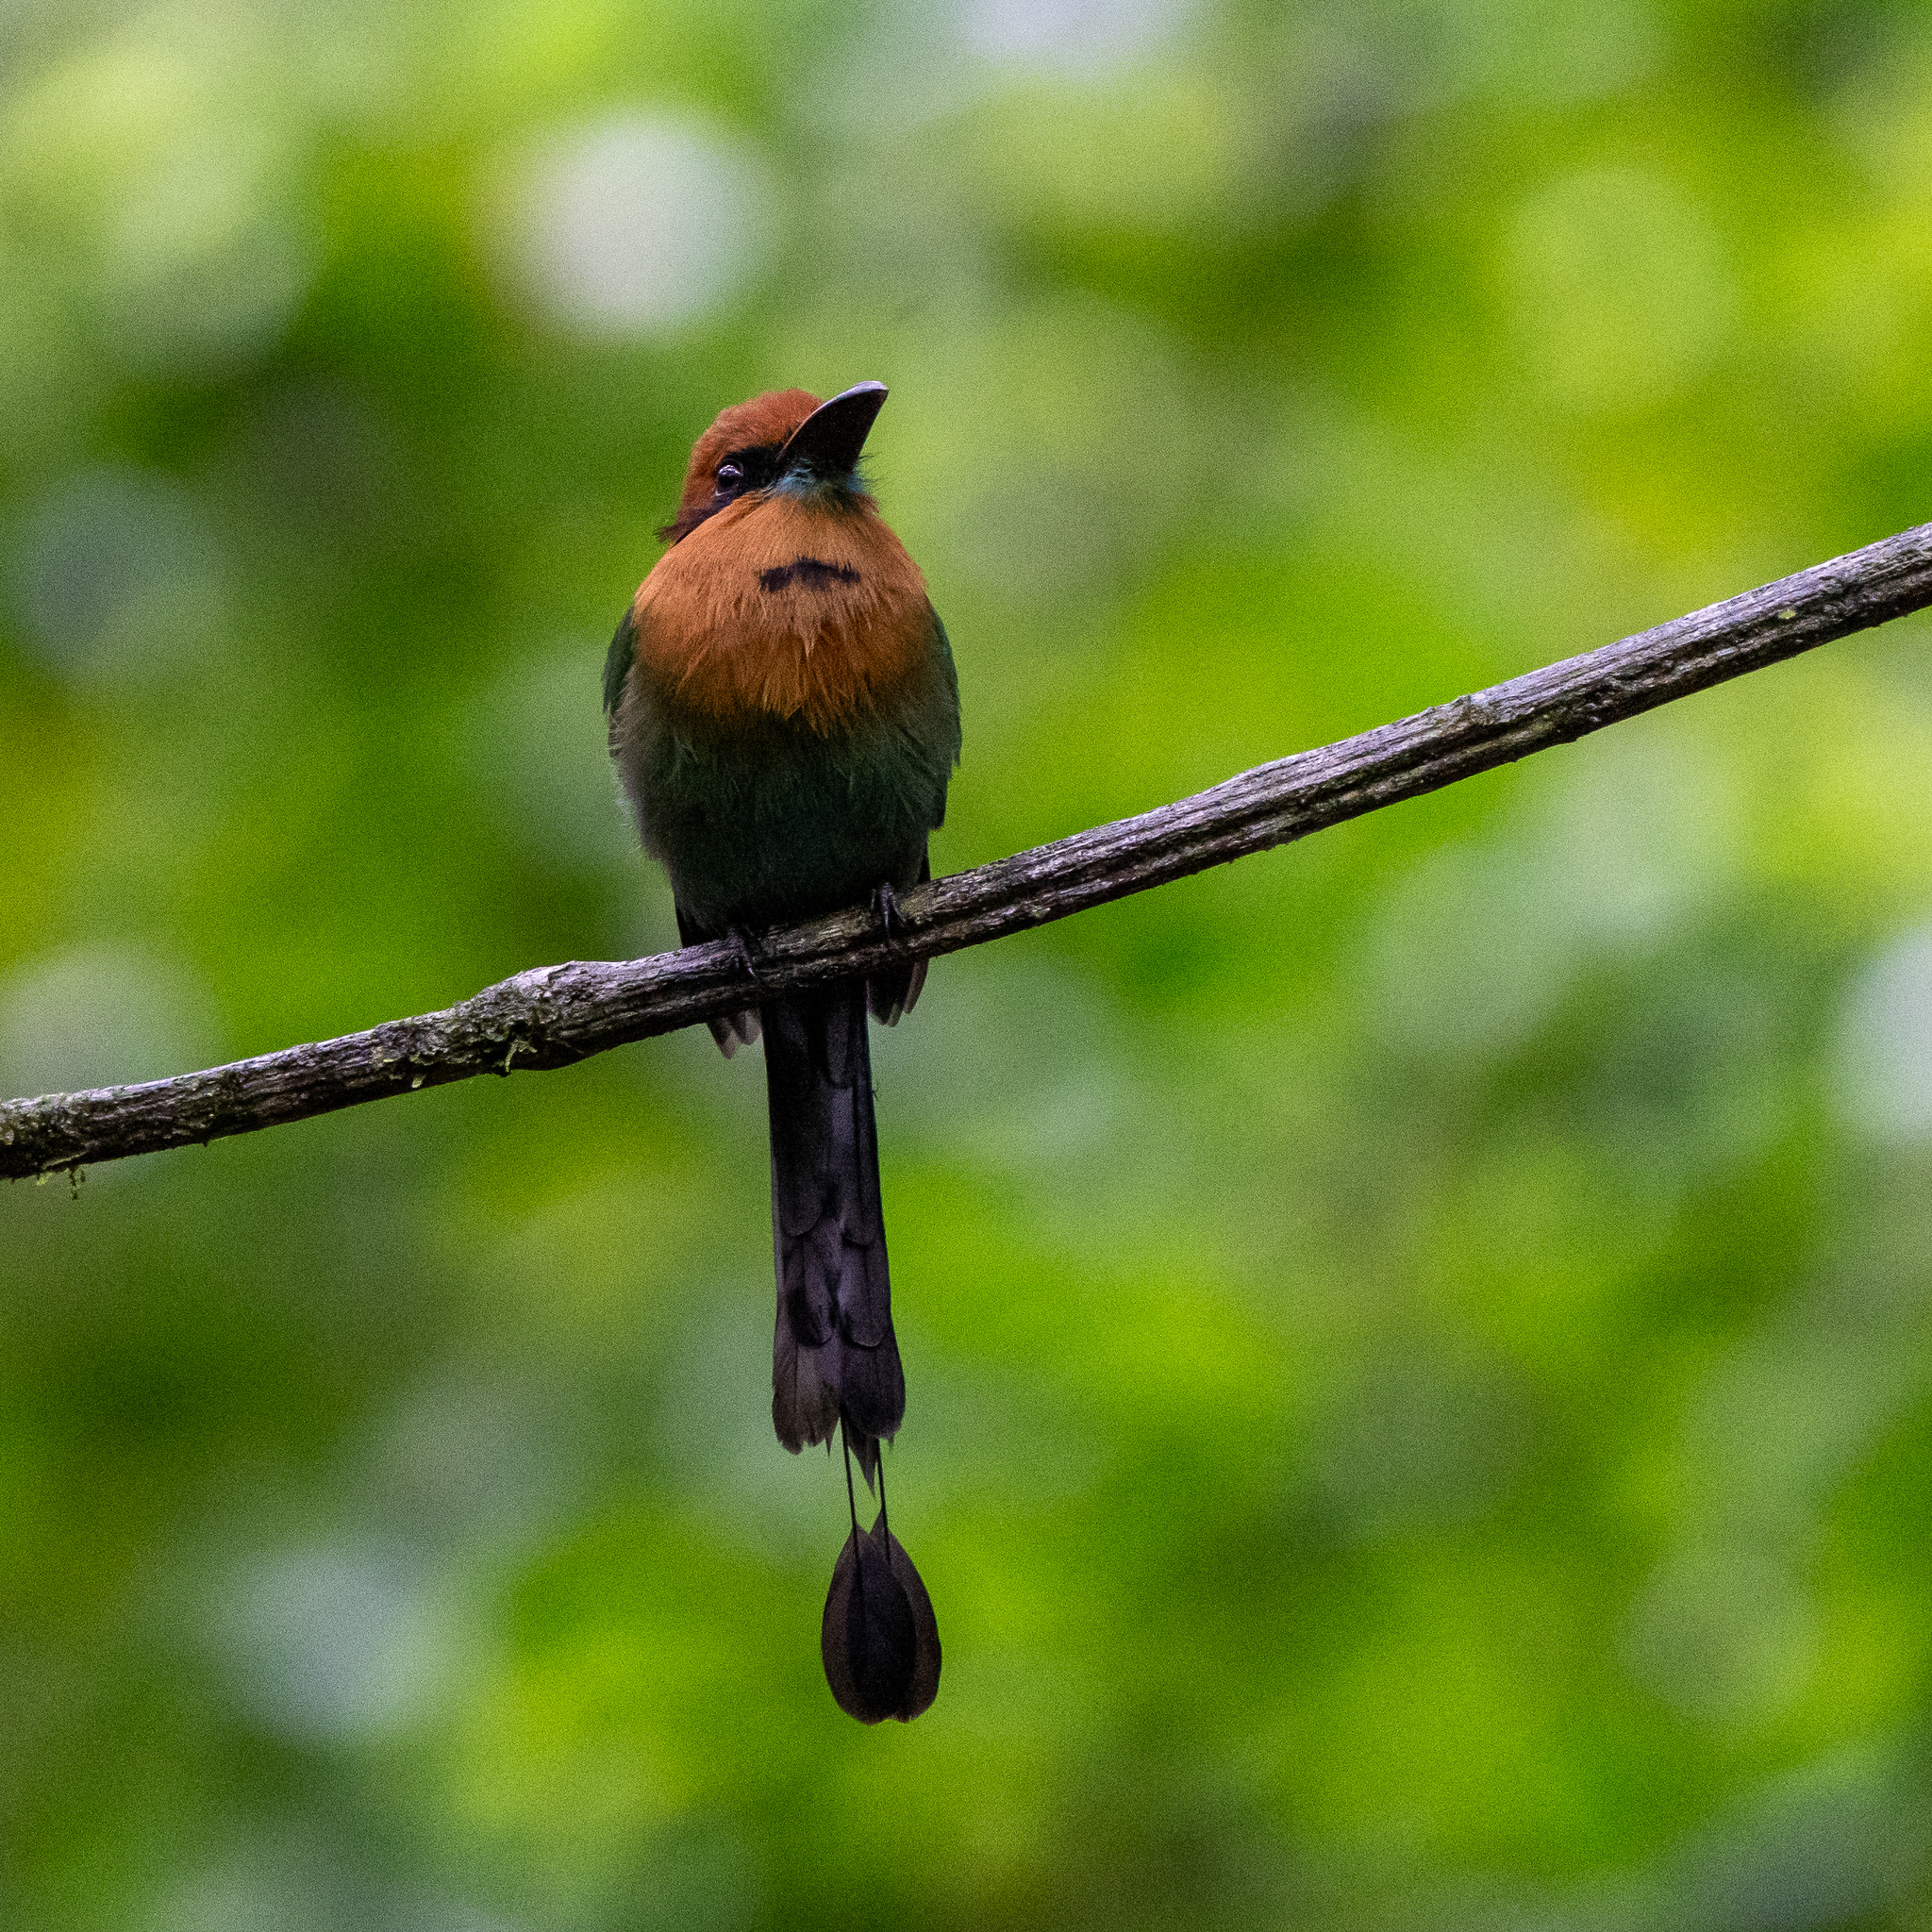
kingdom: Animalia
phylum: Chordata
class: Aves
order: Coraciiformes
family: Momotidae
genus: Electron
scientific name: Electron platyrhynchum
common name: Broad-billed motmot
